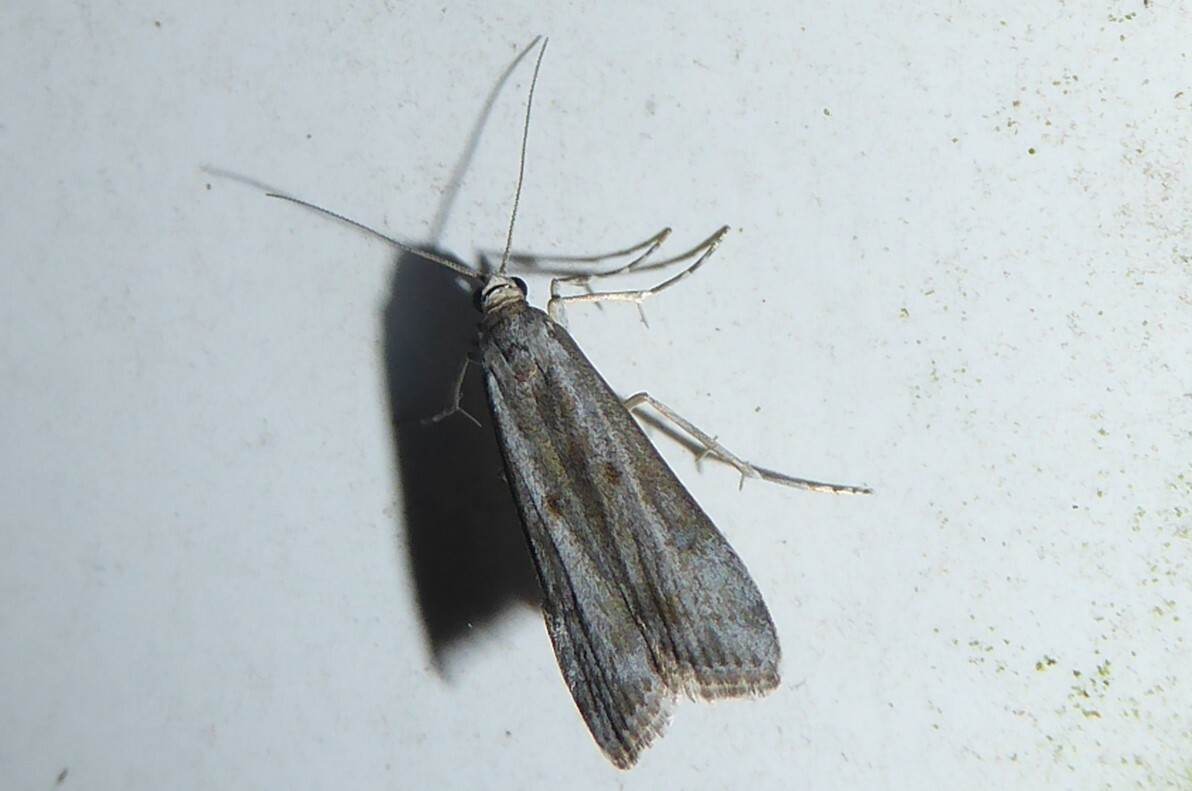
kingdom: Animalia
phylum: Arthropoda
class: Insecta
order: Lepidoptera
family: Crambidae
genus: Eudonia
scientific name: Eudonia leptalea
